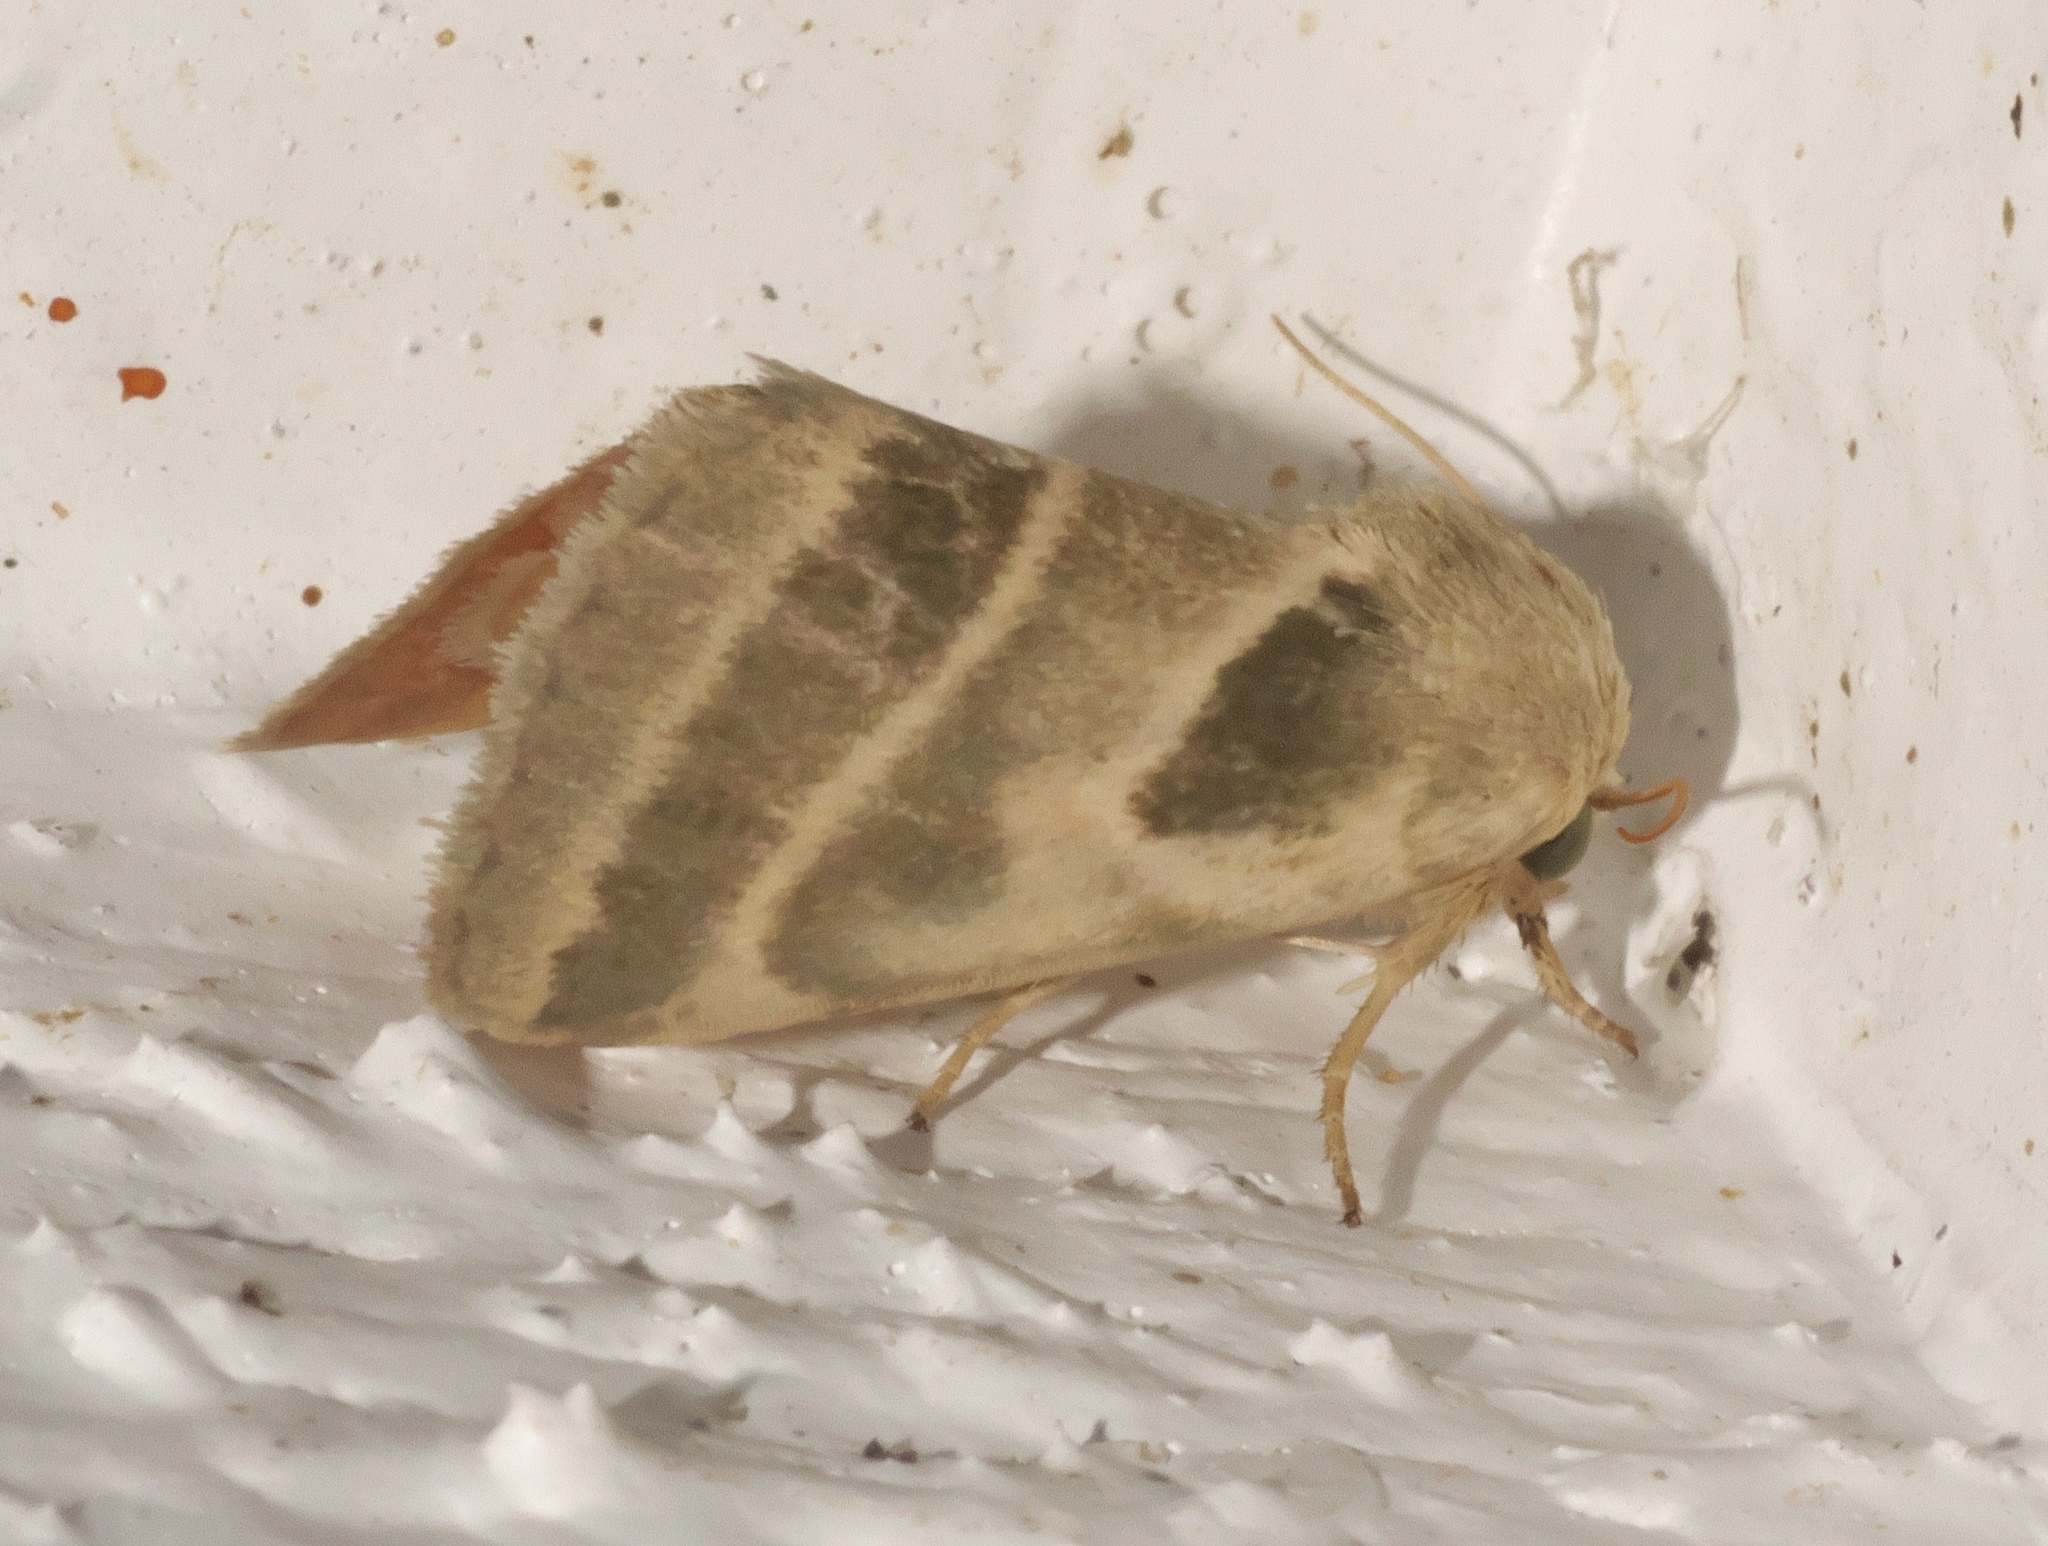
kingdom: Animalia
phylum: Arthropoda
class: Insecta
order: Lepidoptera
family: Noctuidae
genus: Schinia
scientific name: Schinia trifascia
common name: Three-lined flower moth
